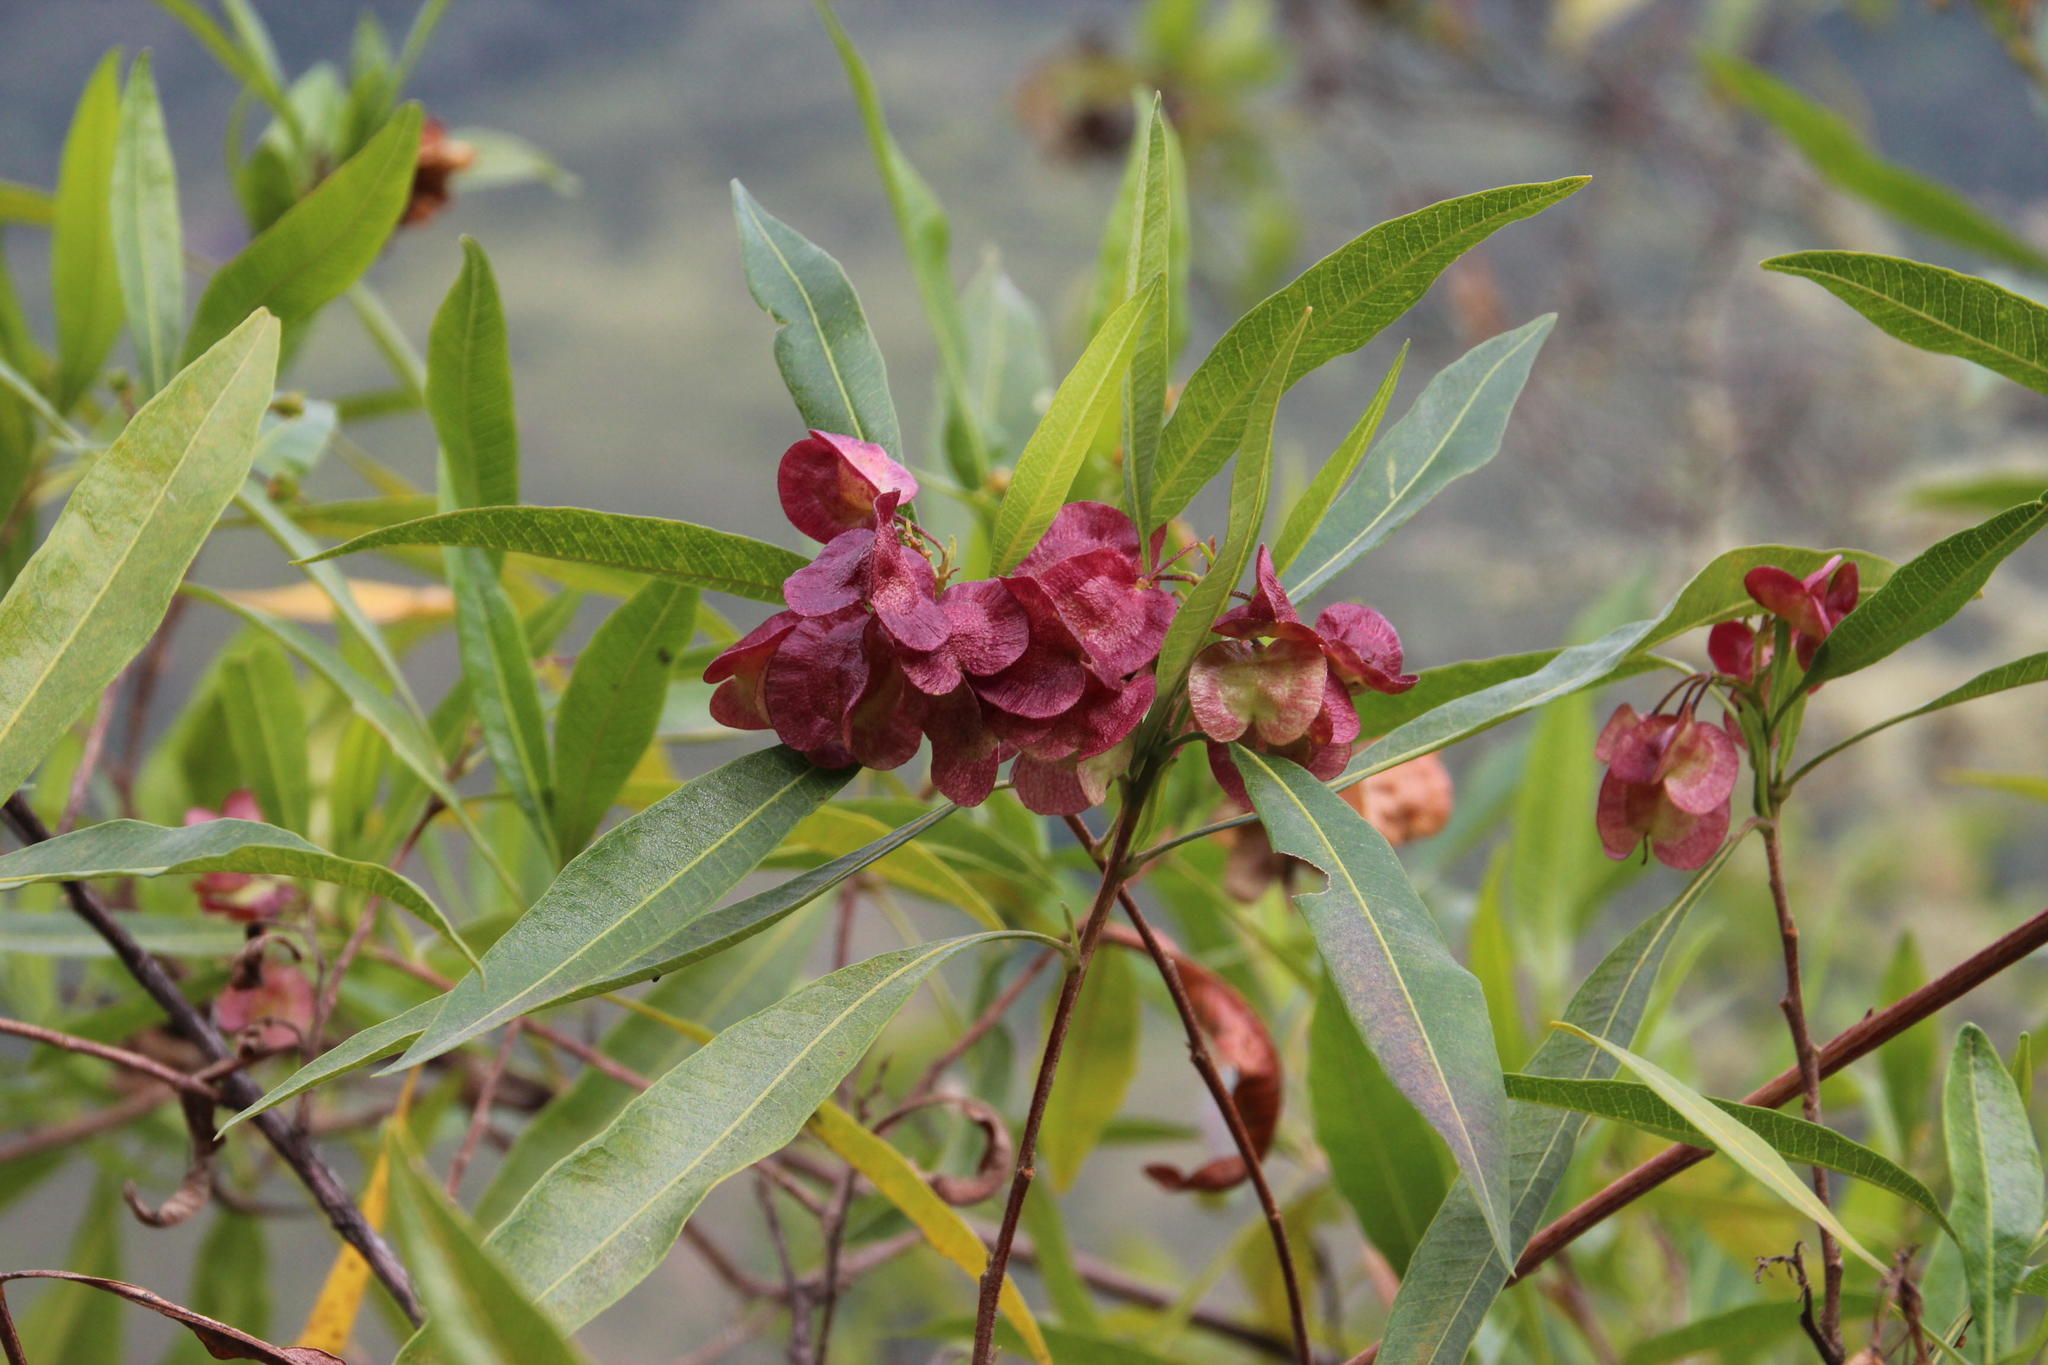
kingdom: Plantae
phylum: Tracheophyta
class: Magnoliopsida
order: Sapindales
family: Sapindaceae
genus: Dodonaea
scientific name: Dodonaea viscosa
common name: Hopbush
